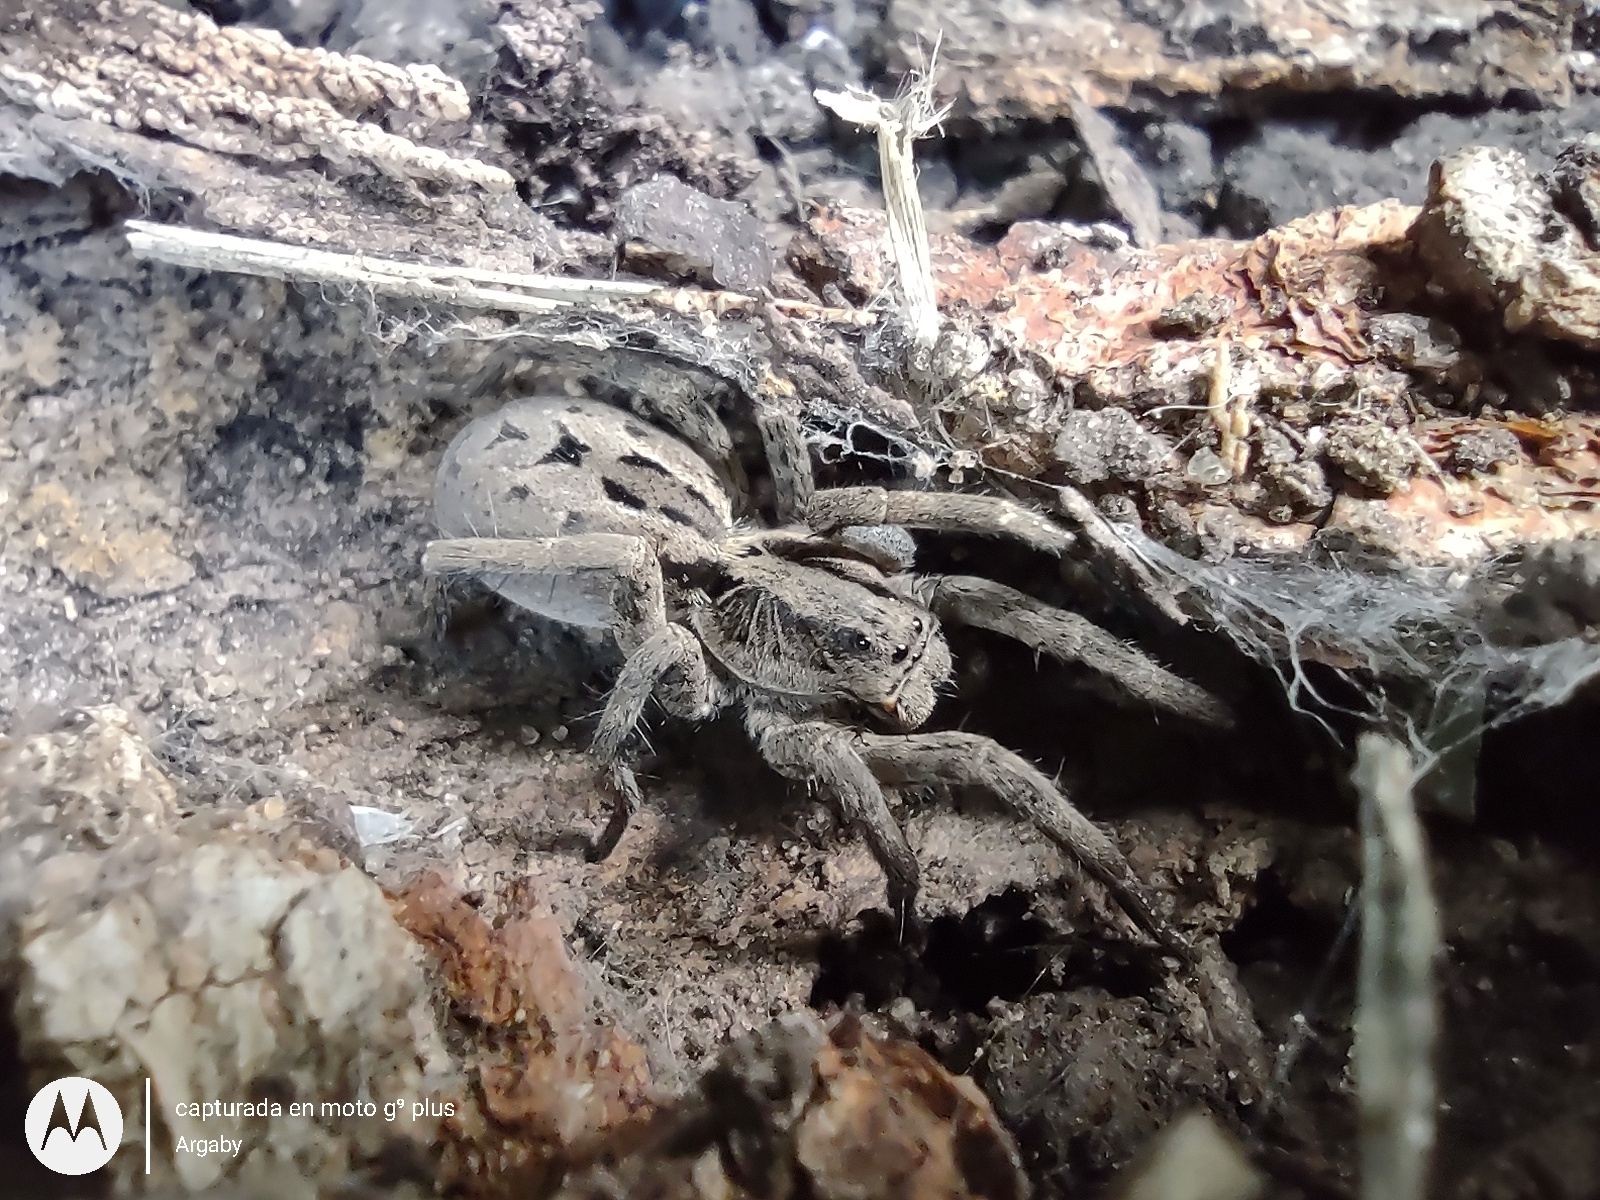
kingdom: Animalia
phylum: Arthropoda
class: Arachnida
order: Araneae
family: Lycosidae
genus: Lycosa
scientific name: Lycosa erythrognatha
